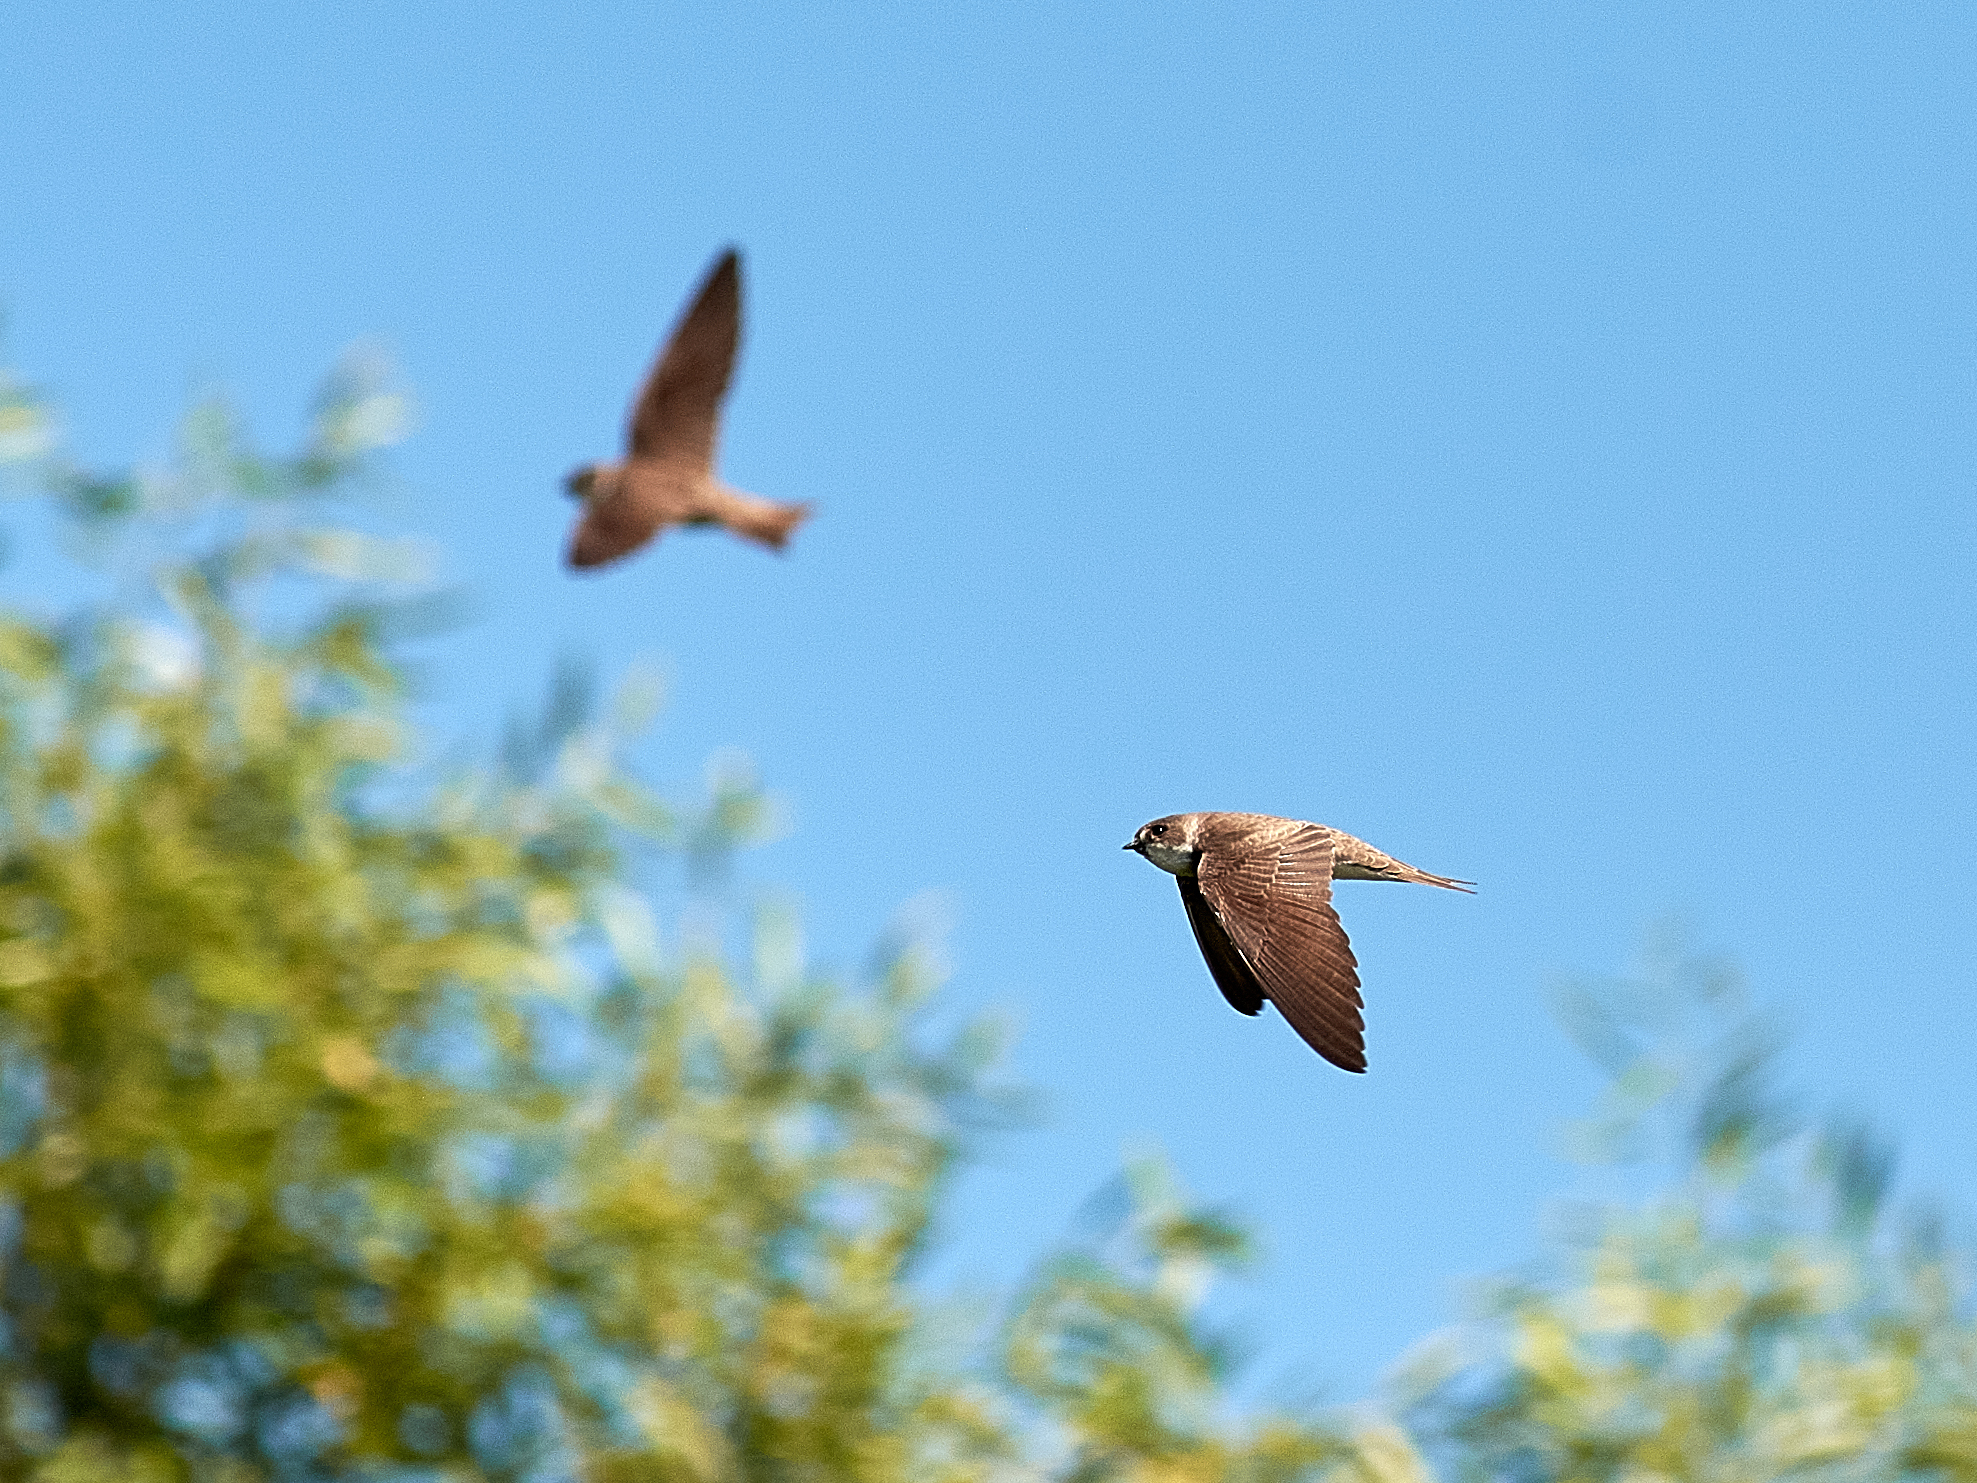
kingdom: Animalia
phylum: Chordata
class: Aves
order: Passeriformes
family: Hirundinidae
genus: Riparia
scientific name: Riparia riparia
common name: Sand martin
